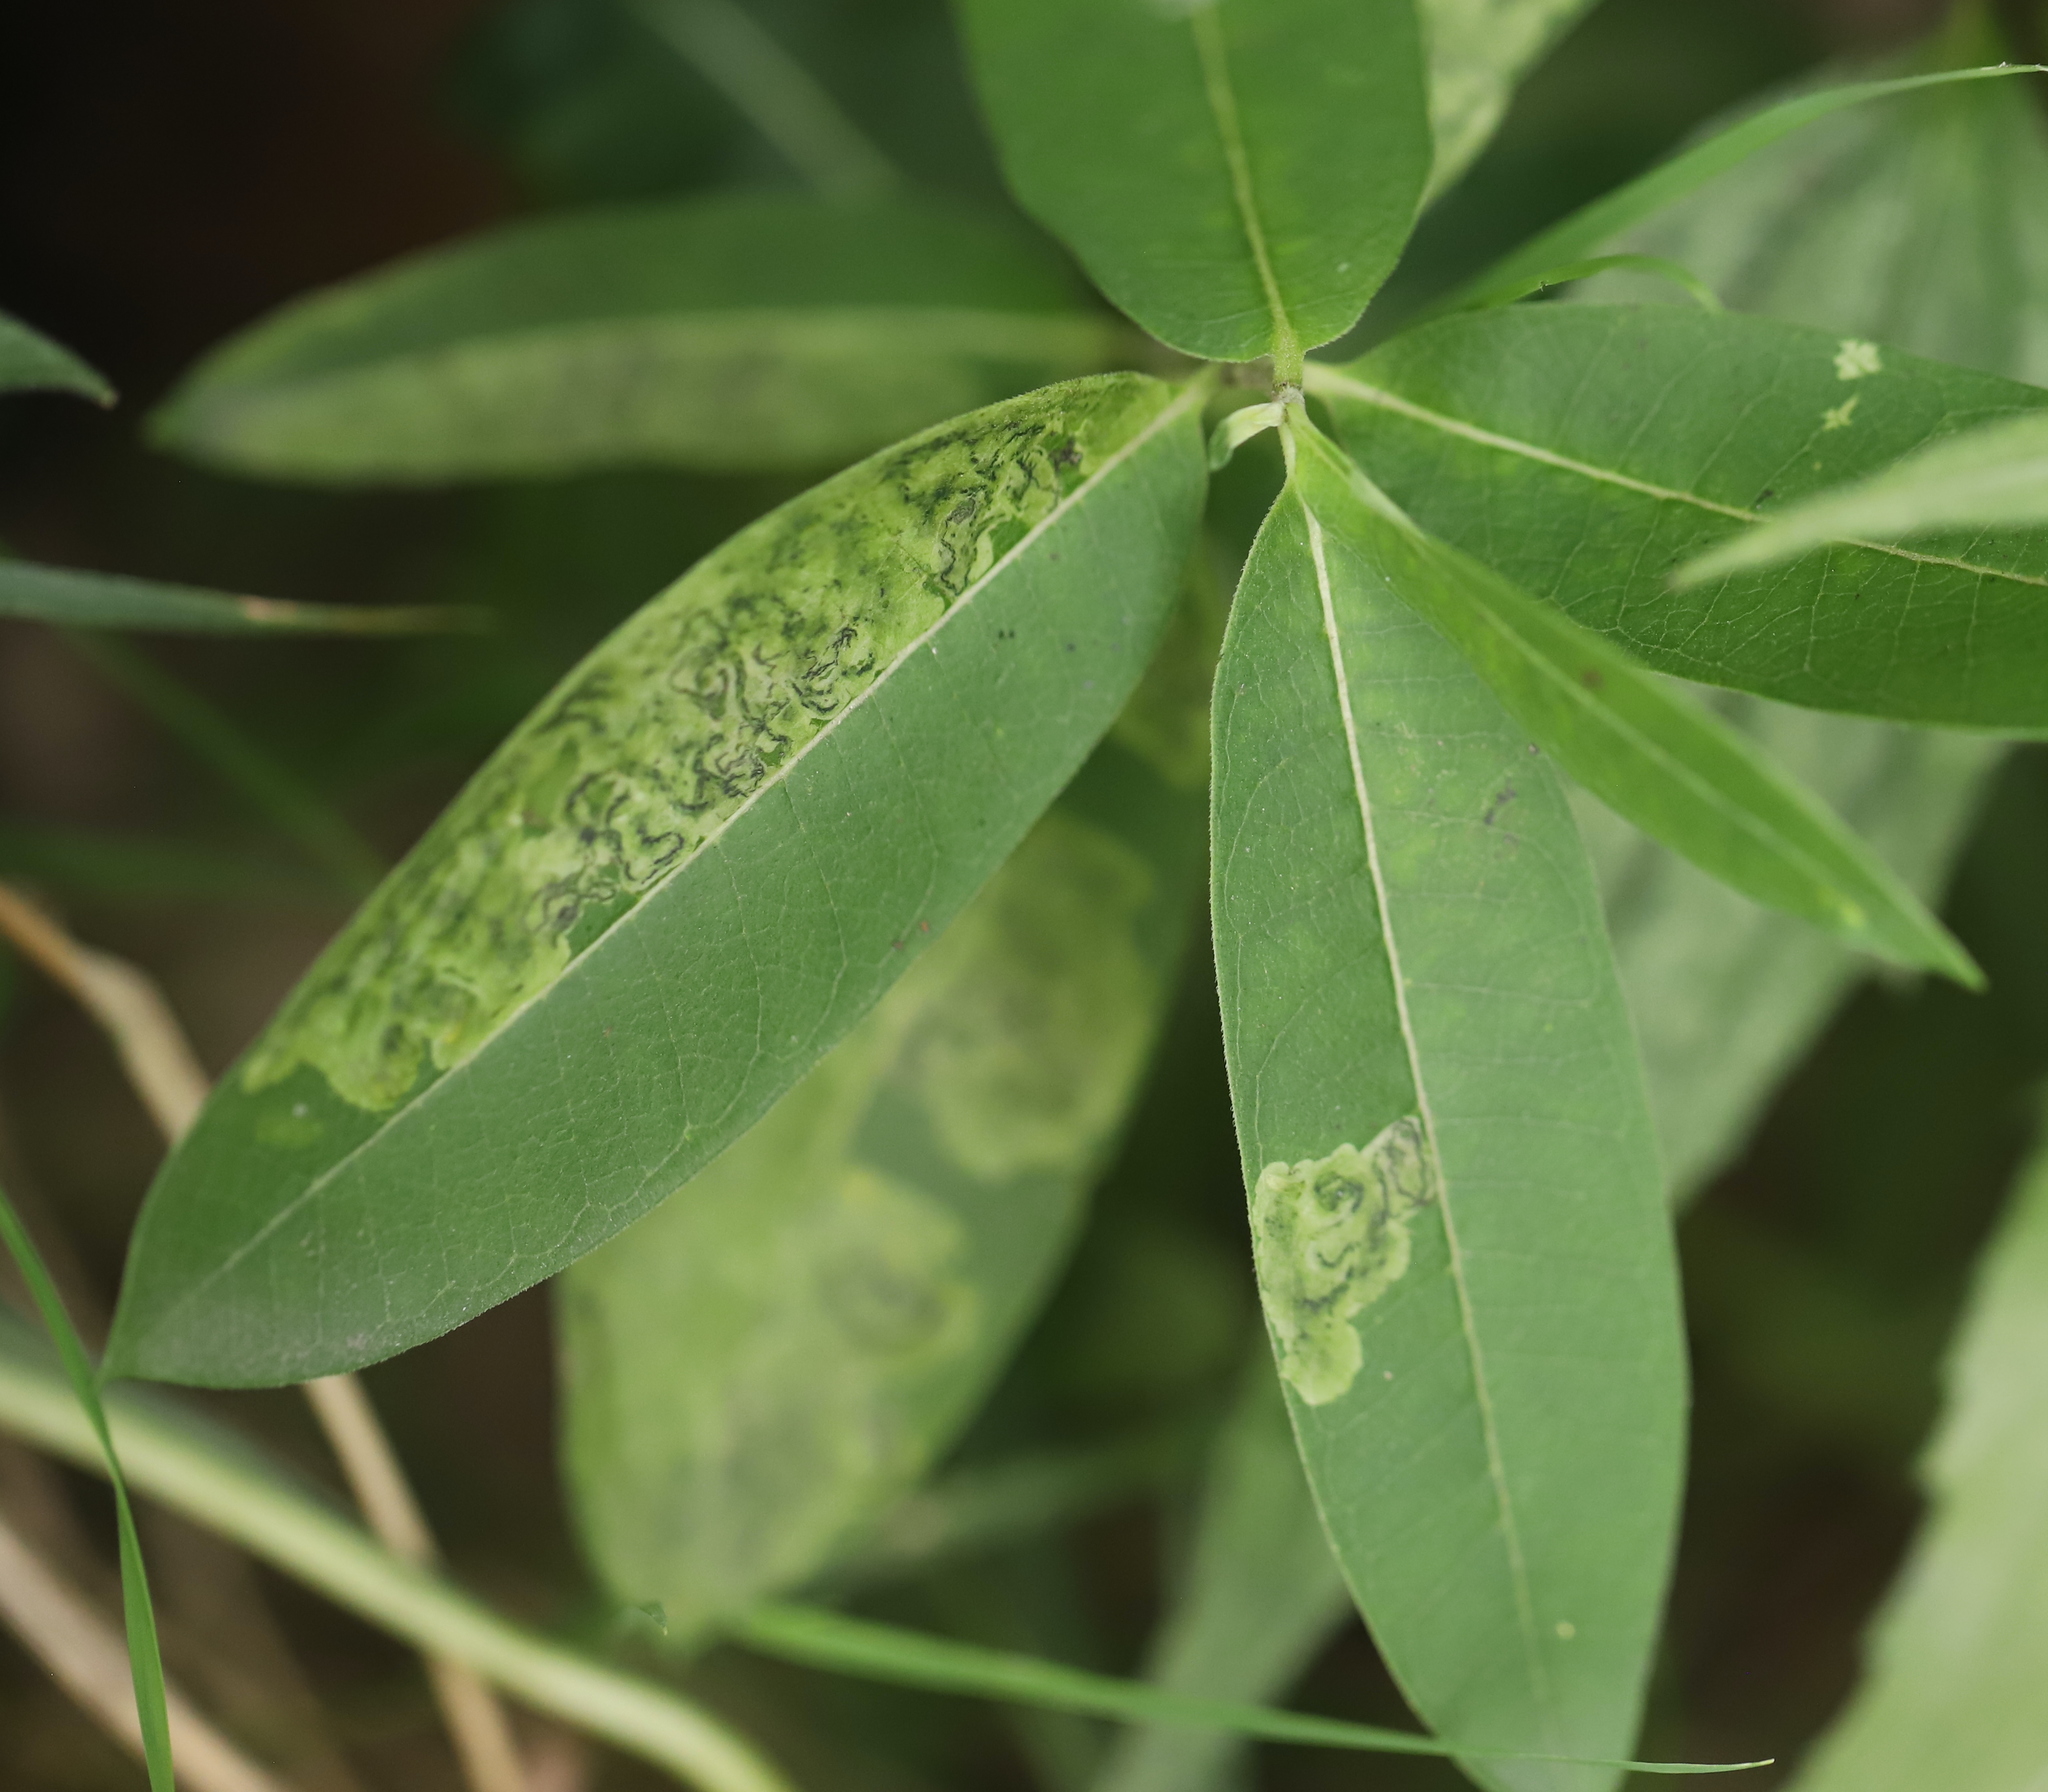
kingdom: Animalia
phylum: Arthropoda
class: Insecta
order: Diptera
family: Agromyzidae
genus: Liriomyza
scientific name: Liriomyza asclepiadis
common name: Milkweed leaf-miner fly
